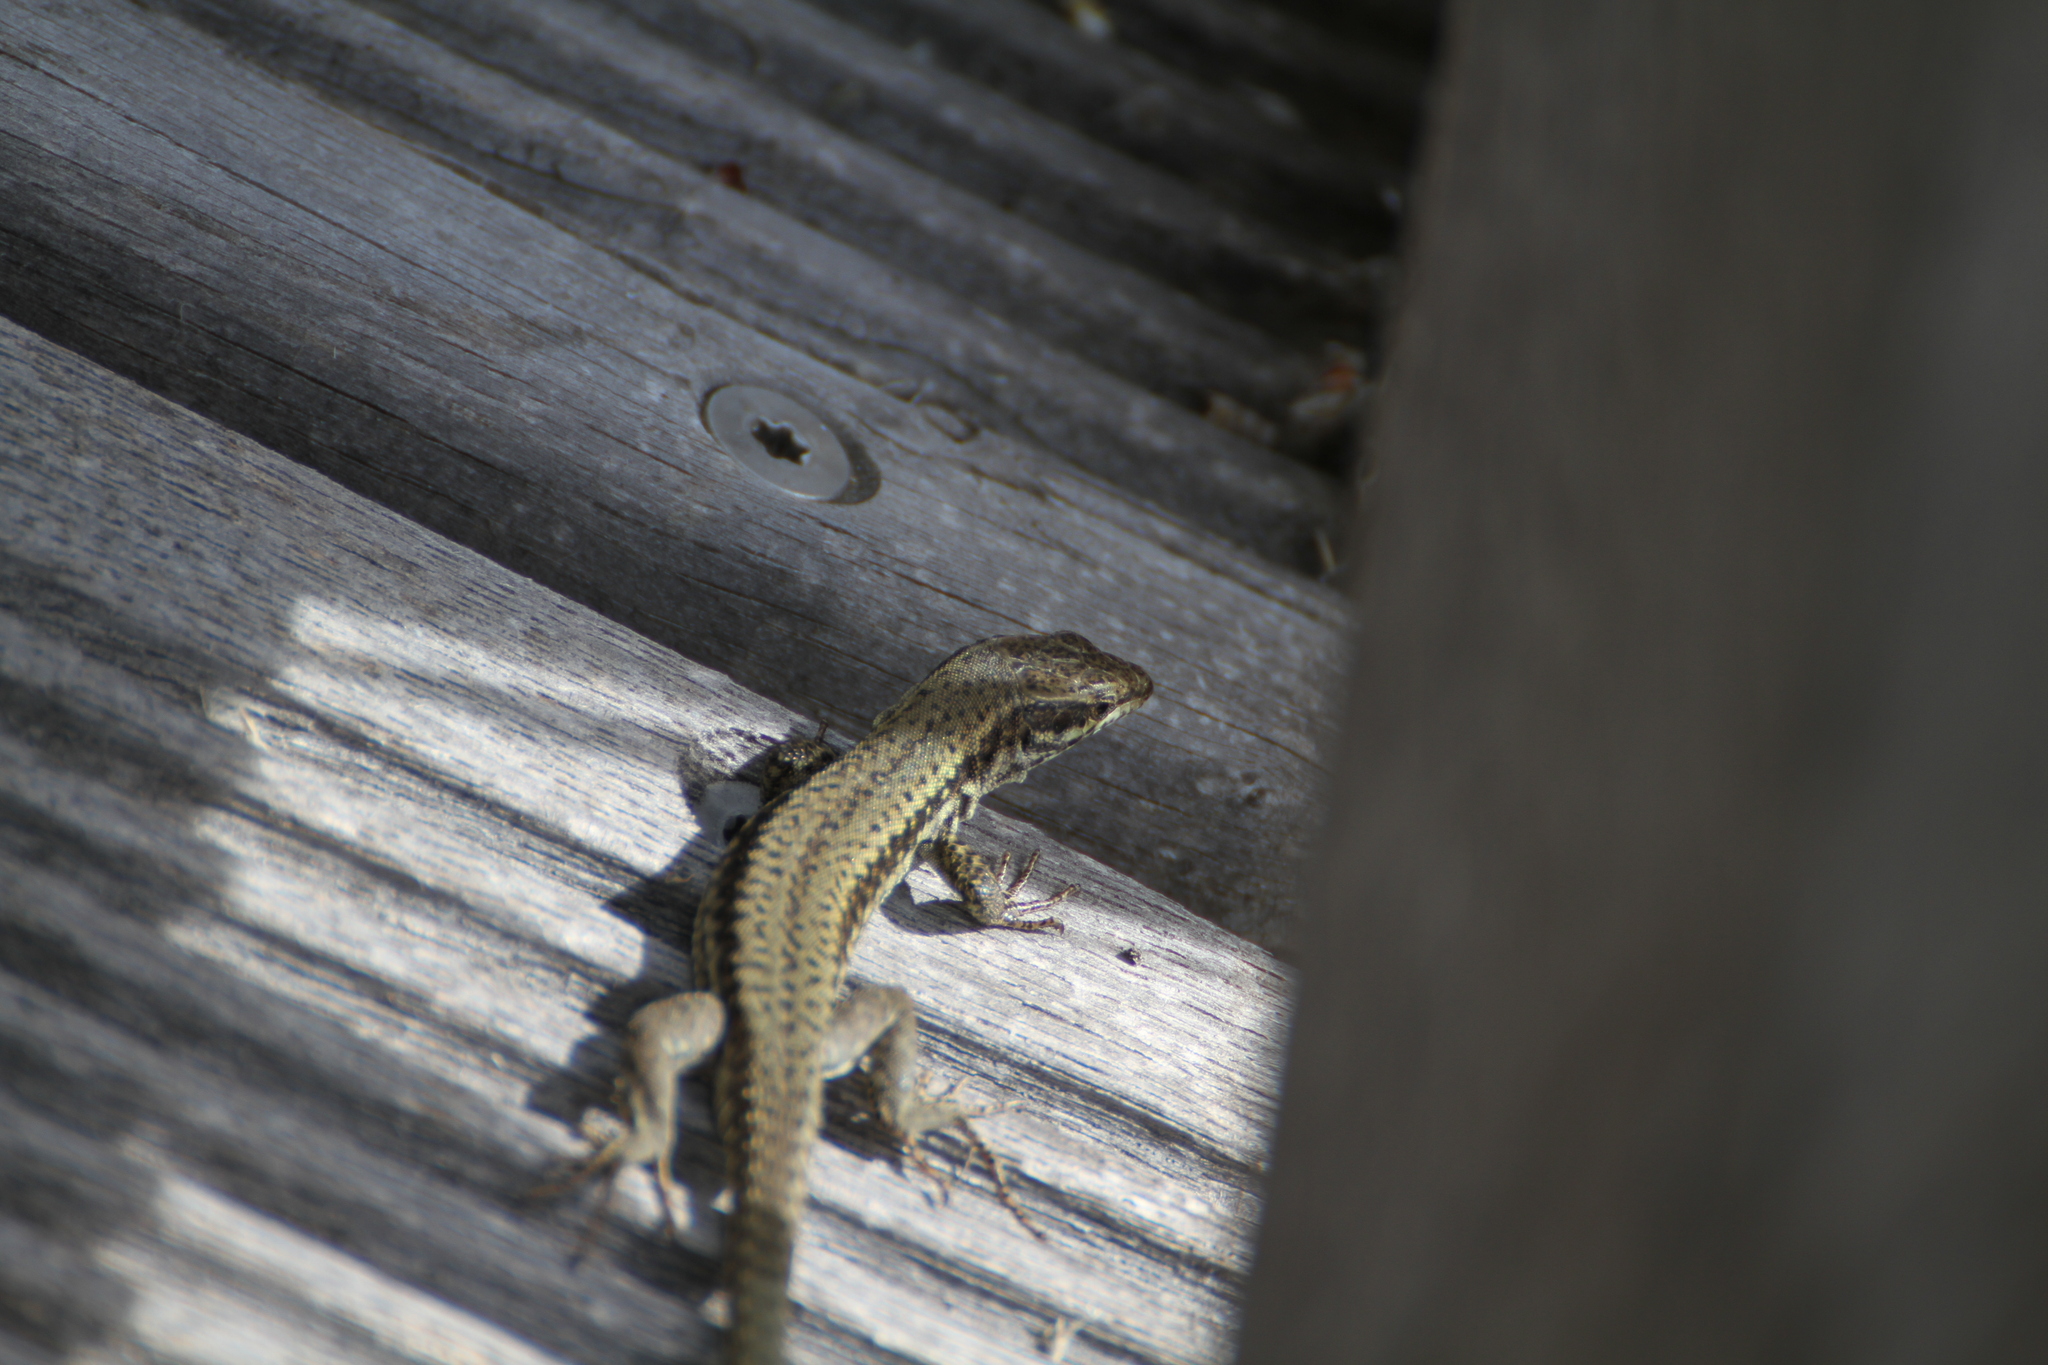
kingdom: Animalia
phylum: Chordata
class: Squamata
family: Lacertidae
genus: Podarcis
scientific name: Podarcis muralis
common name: Common wall lizard
